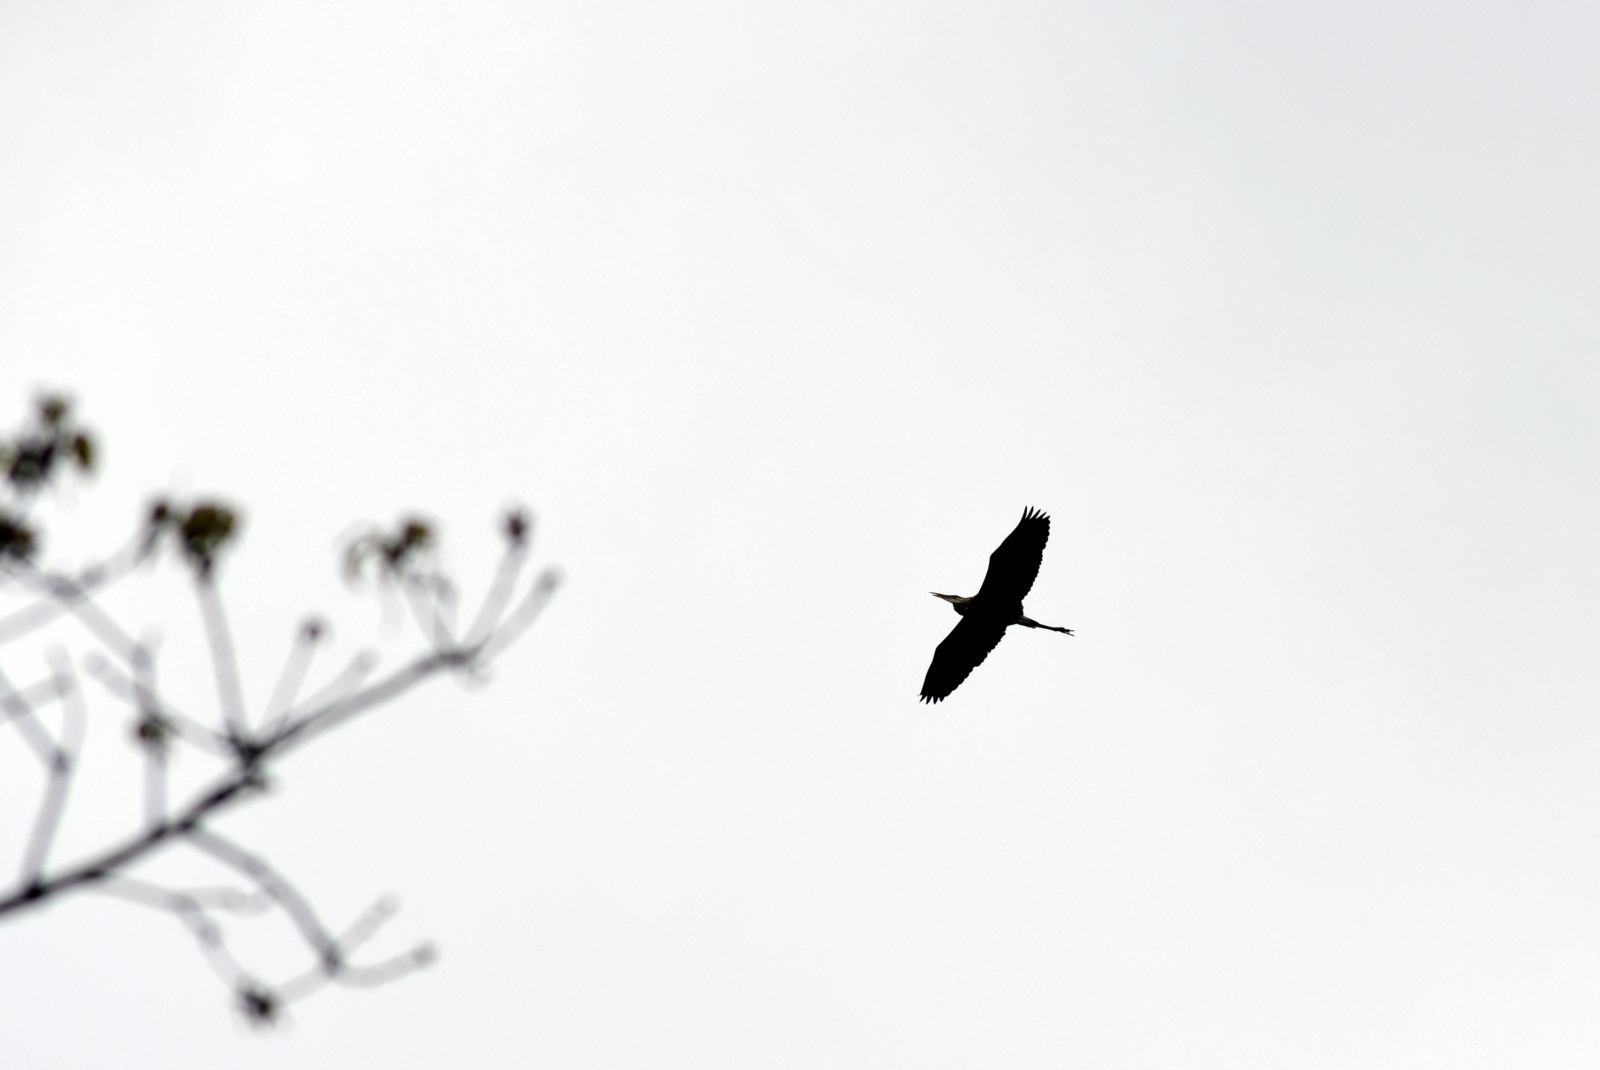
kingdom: Animalia
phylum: Chordata
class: Aves
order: Pelecaniformes
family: Ardeidae
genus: Ardea
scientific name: Ardea herodias
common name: Great blue heron
